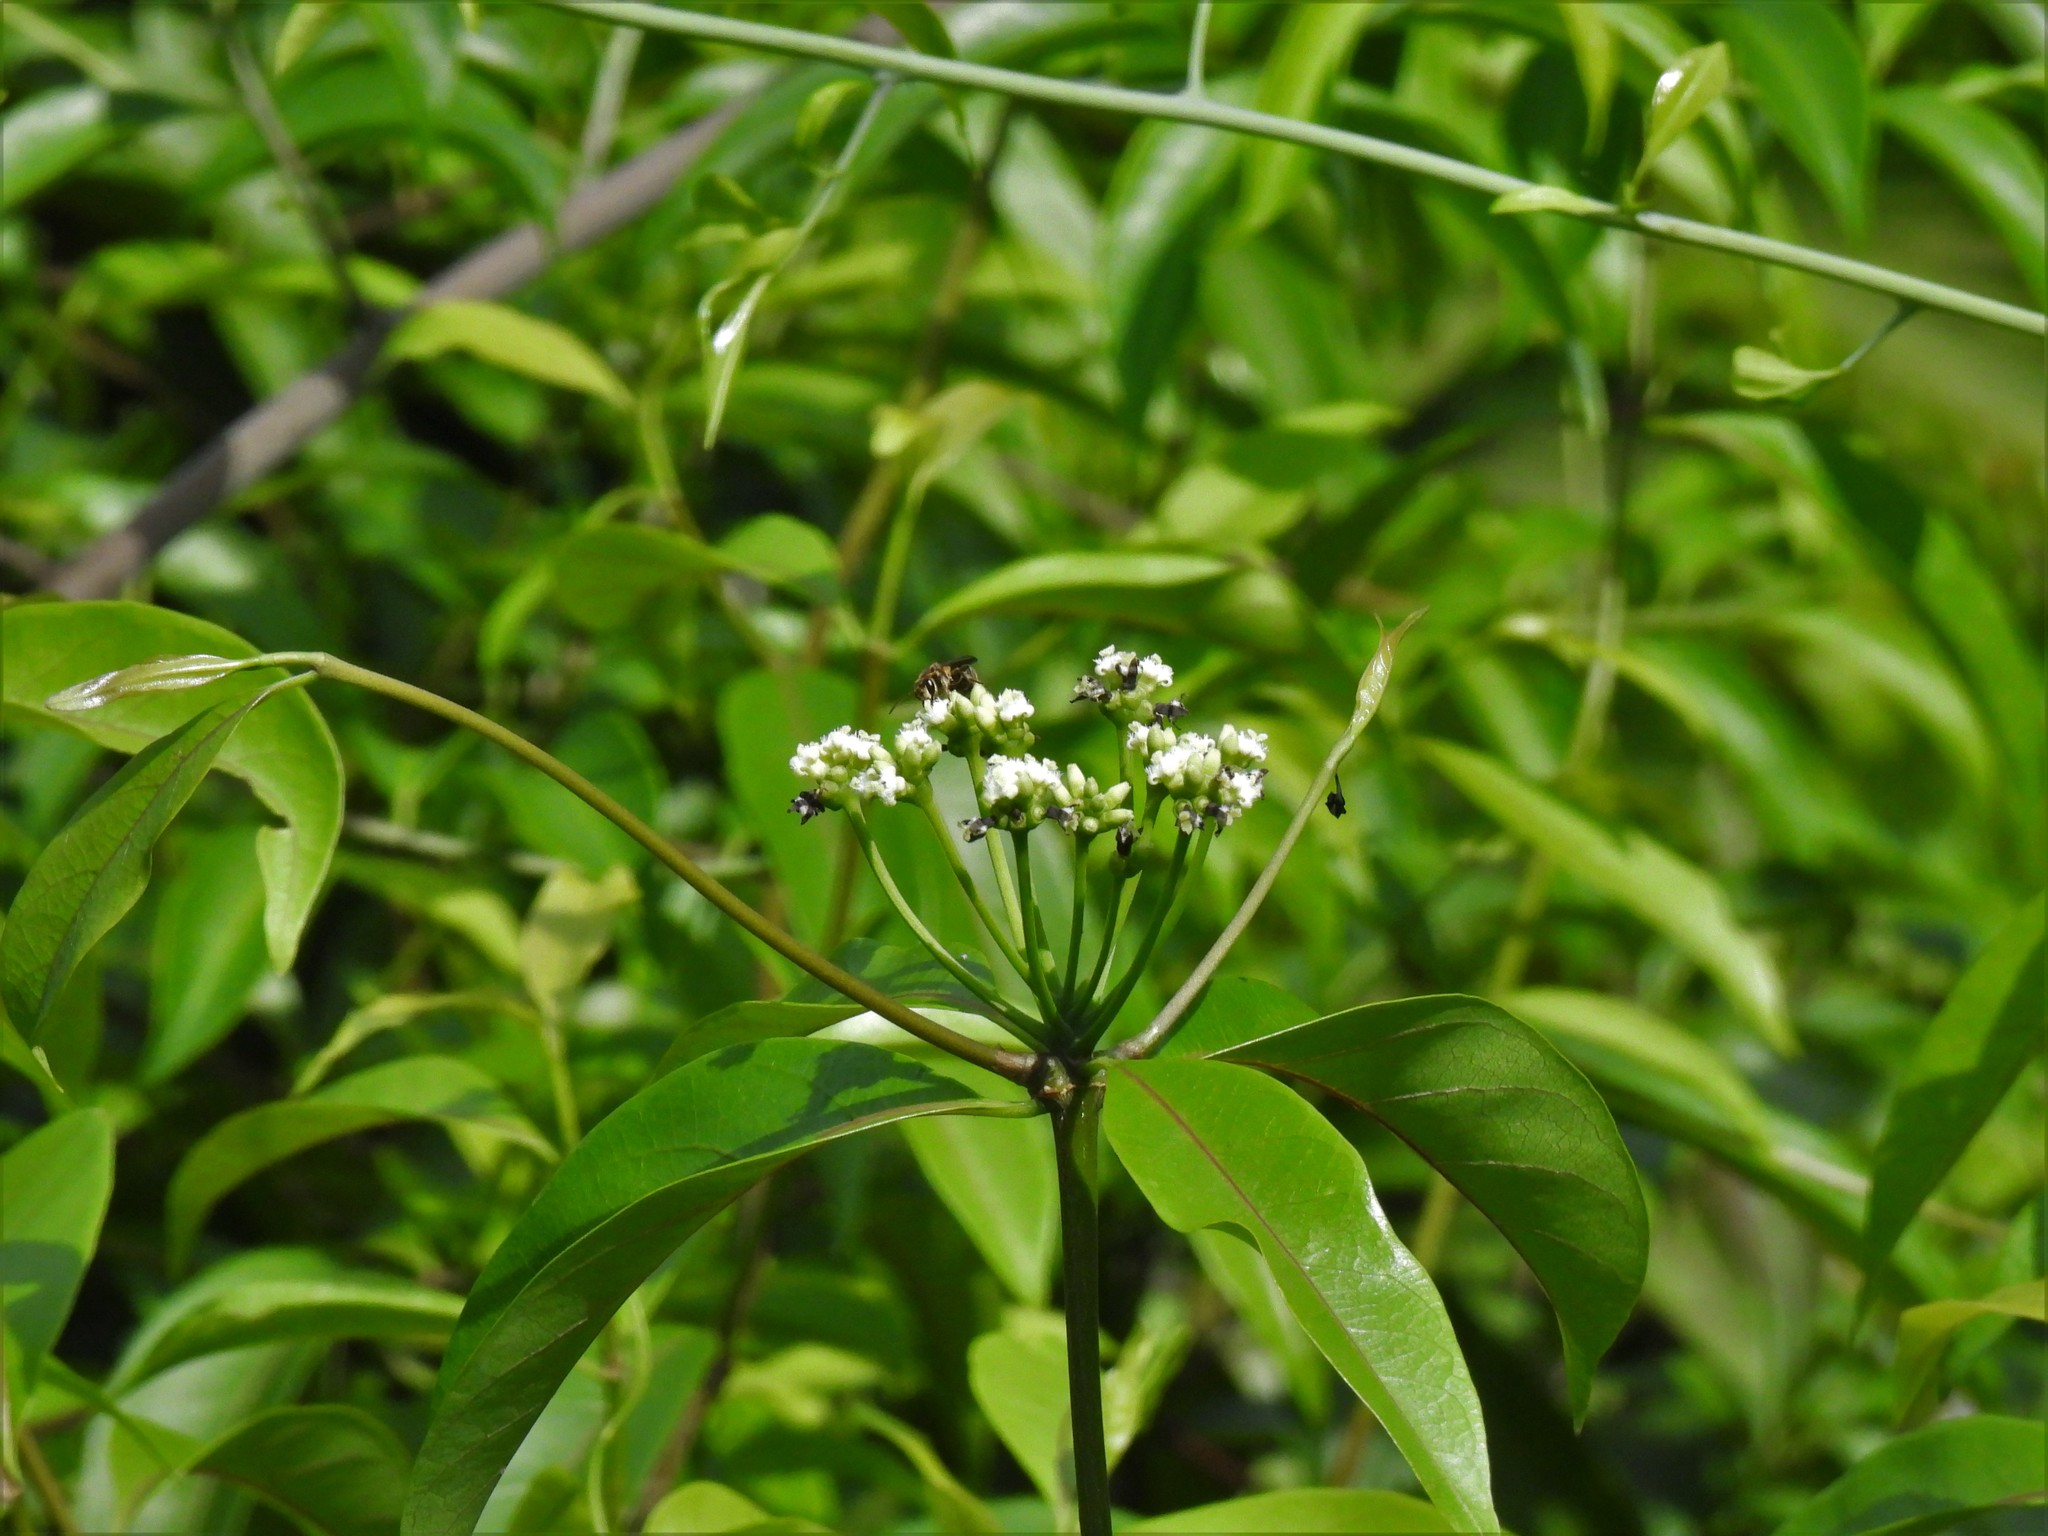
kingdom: Plantae
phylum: Tracheophyta
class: Magnoliopsida
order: Gentianales
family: Rubiaceae
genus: Gynochthodes
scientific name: Gynochthodes umbellata
